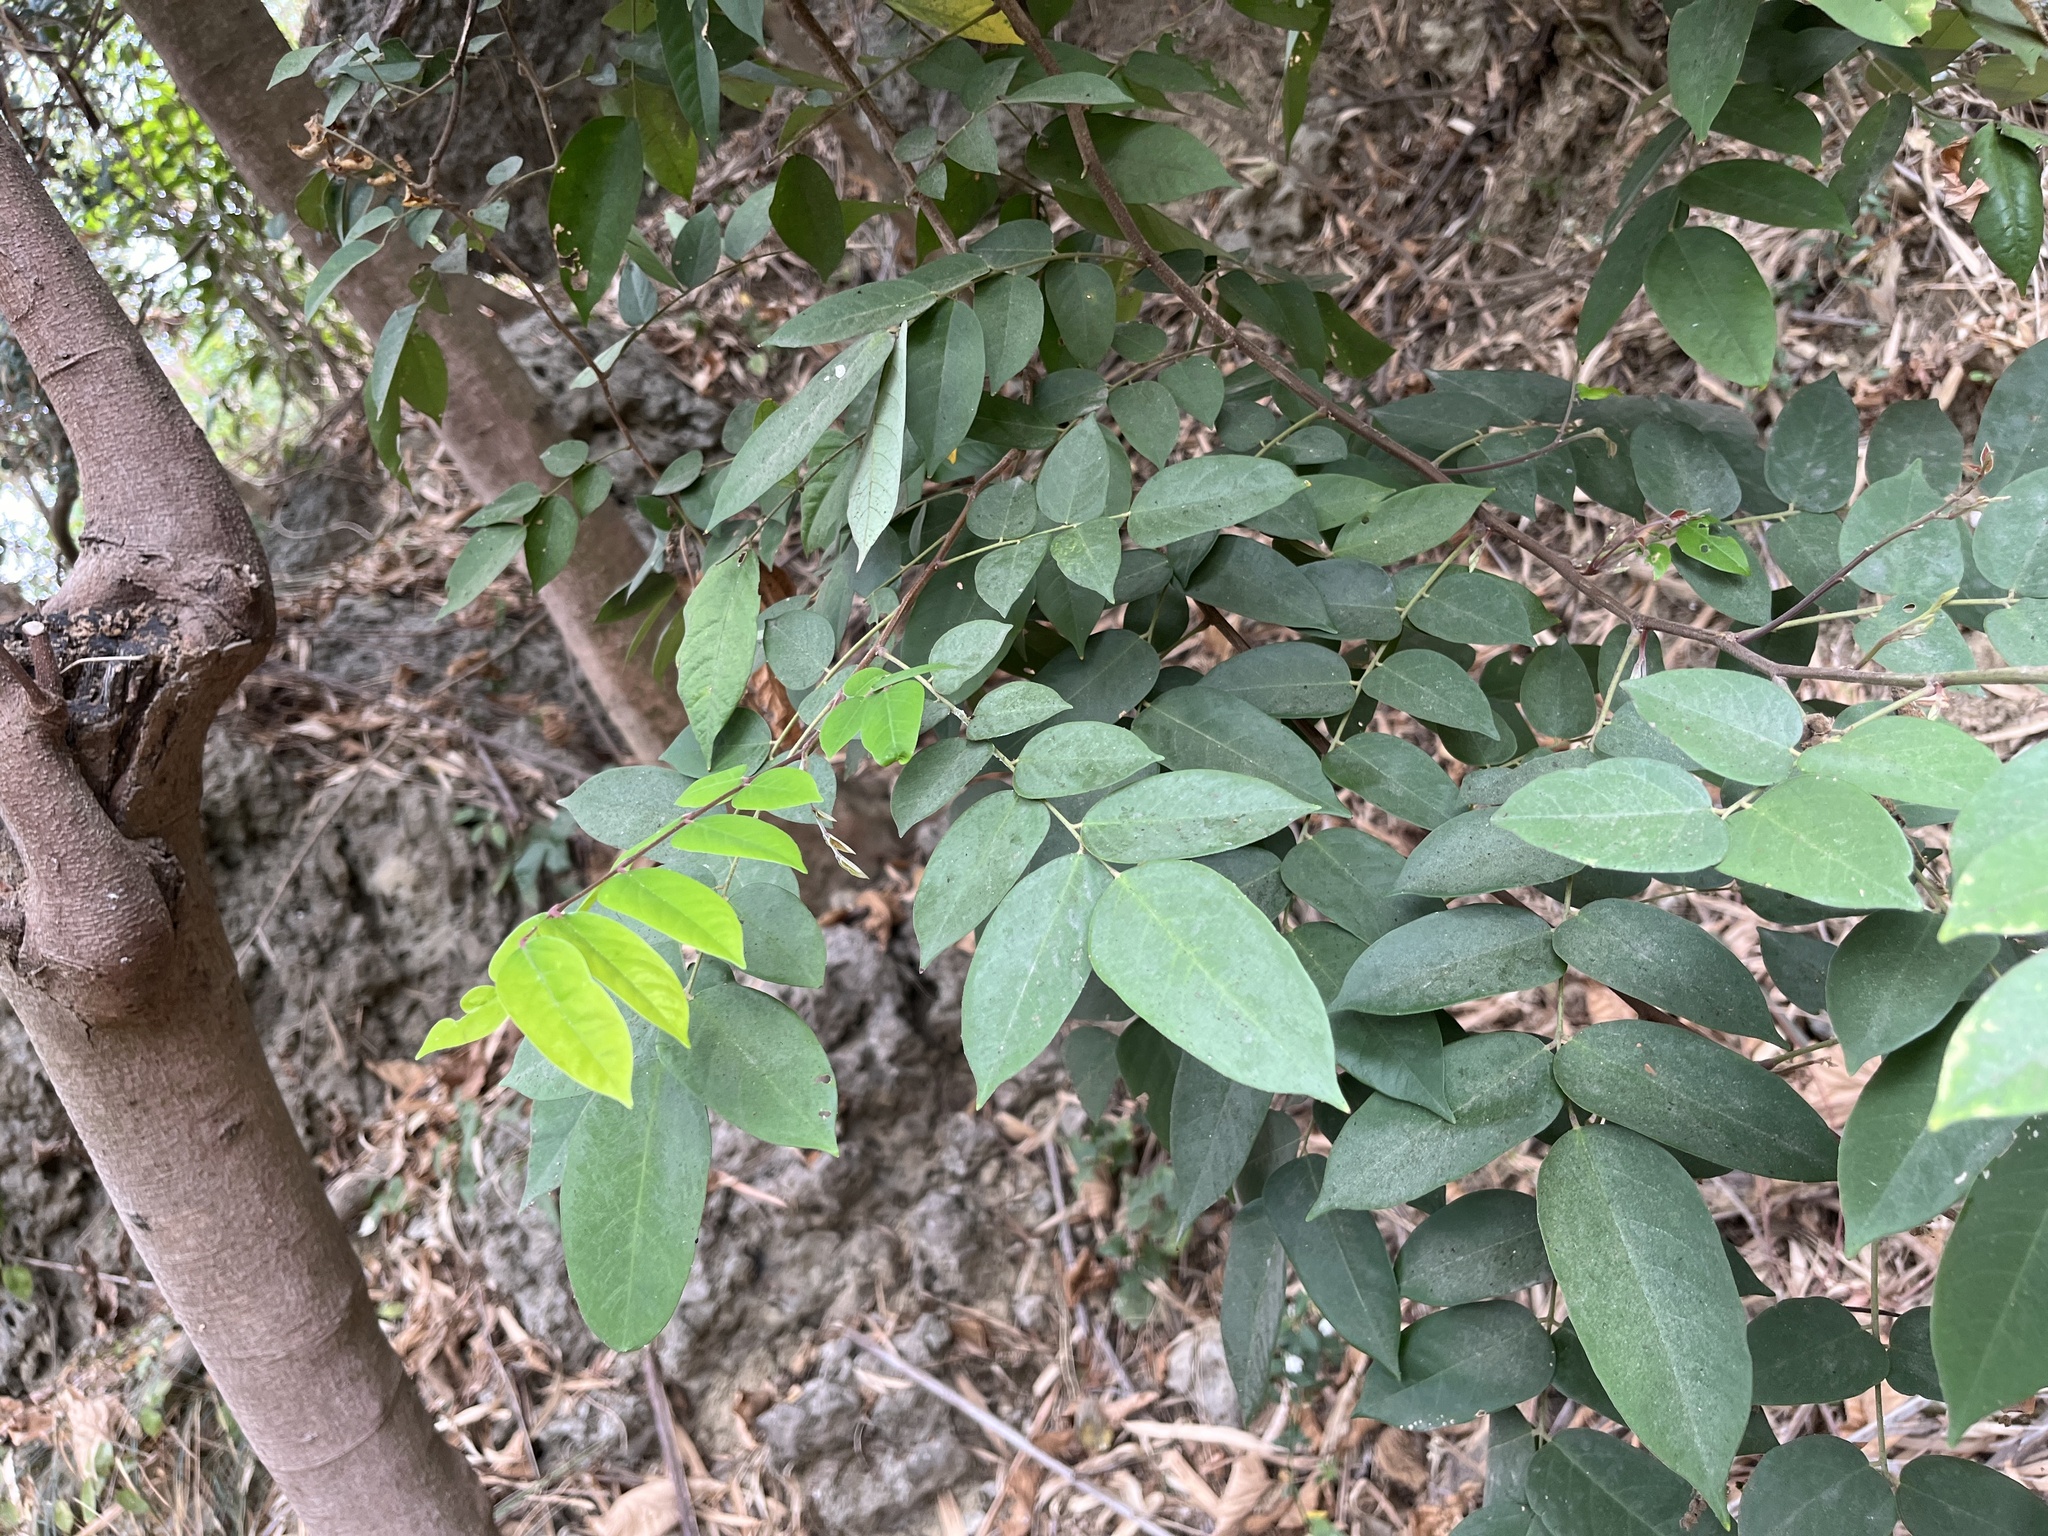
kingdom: Plantae
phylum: Tracheophyta
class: Magnoliopsida
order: Oxalidales
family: Oxalidaceae
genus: Averrhoa
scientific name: Averrhoa carambola
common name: Blimbing
